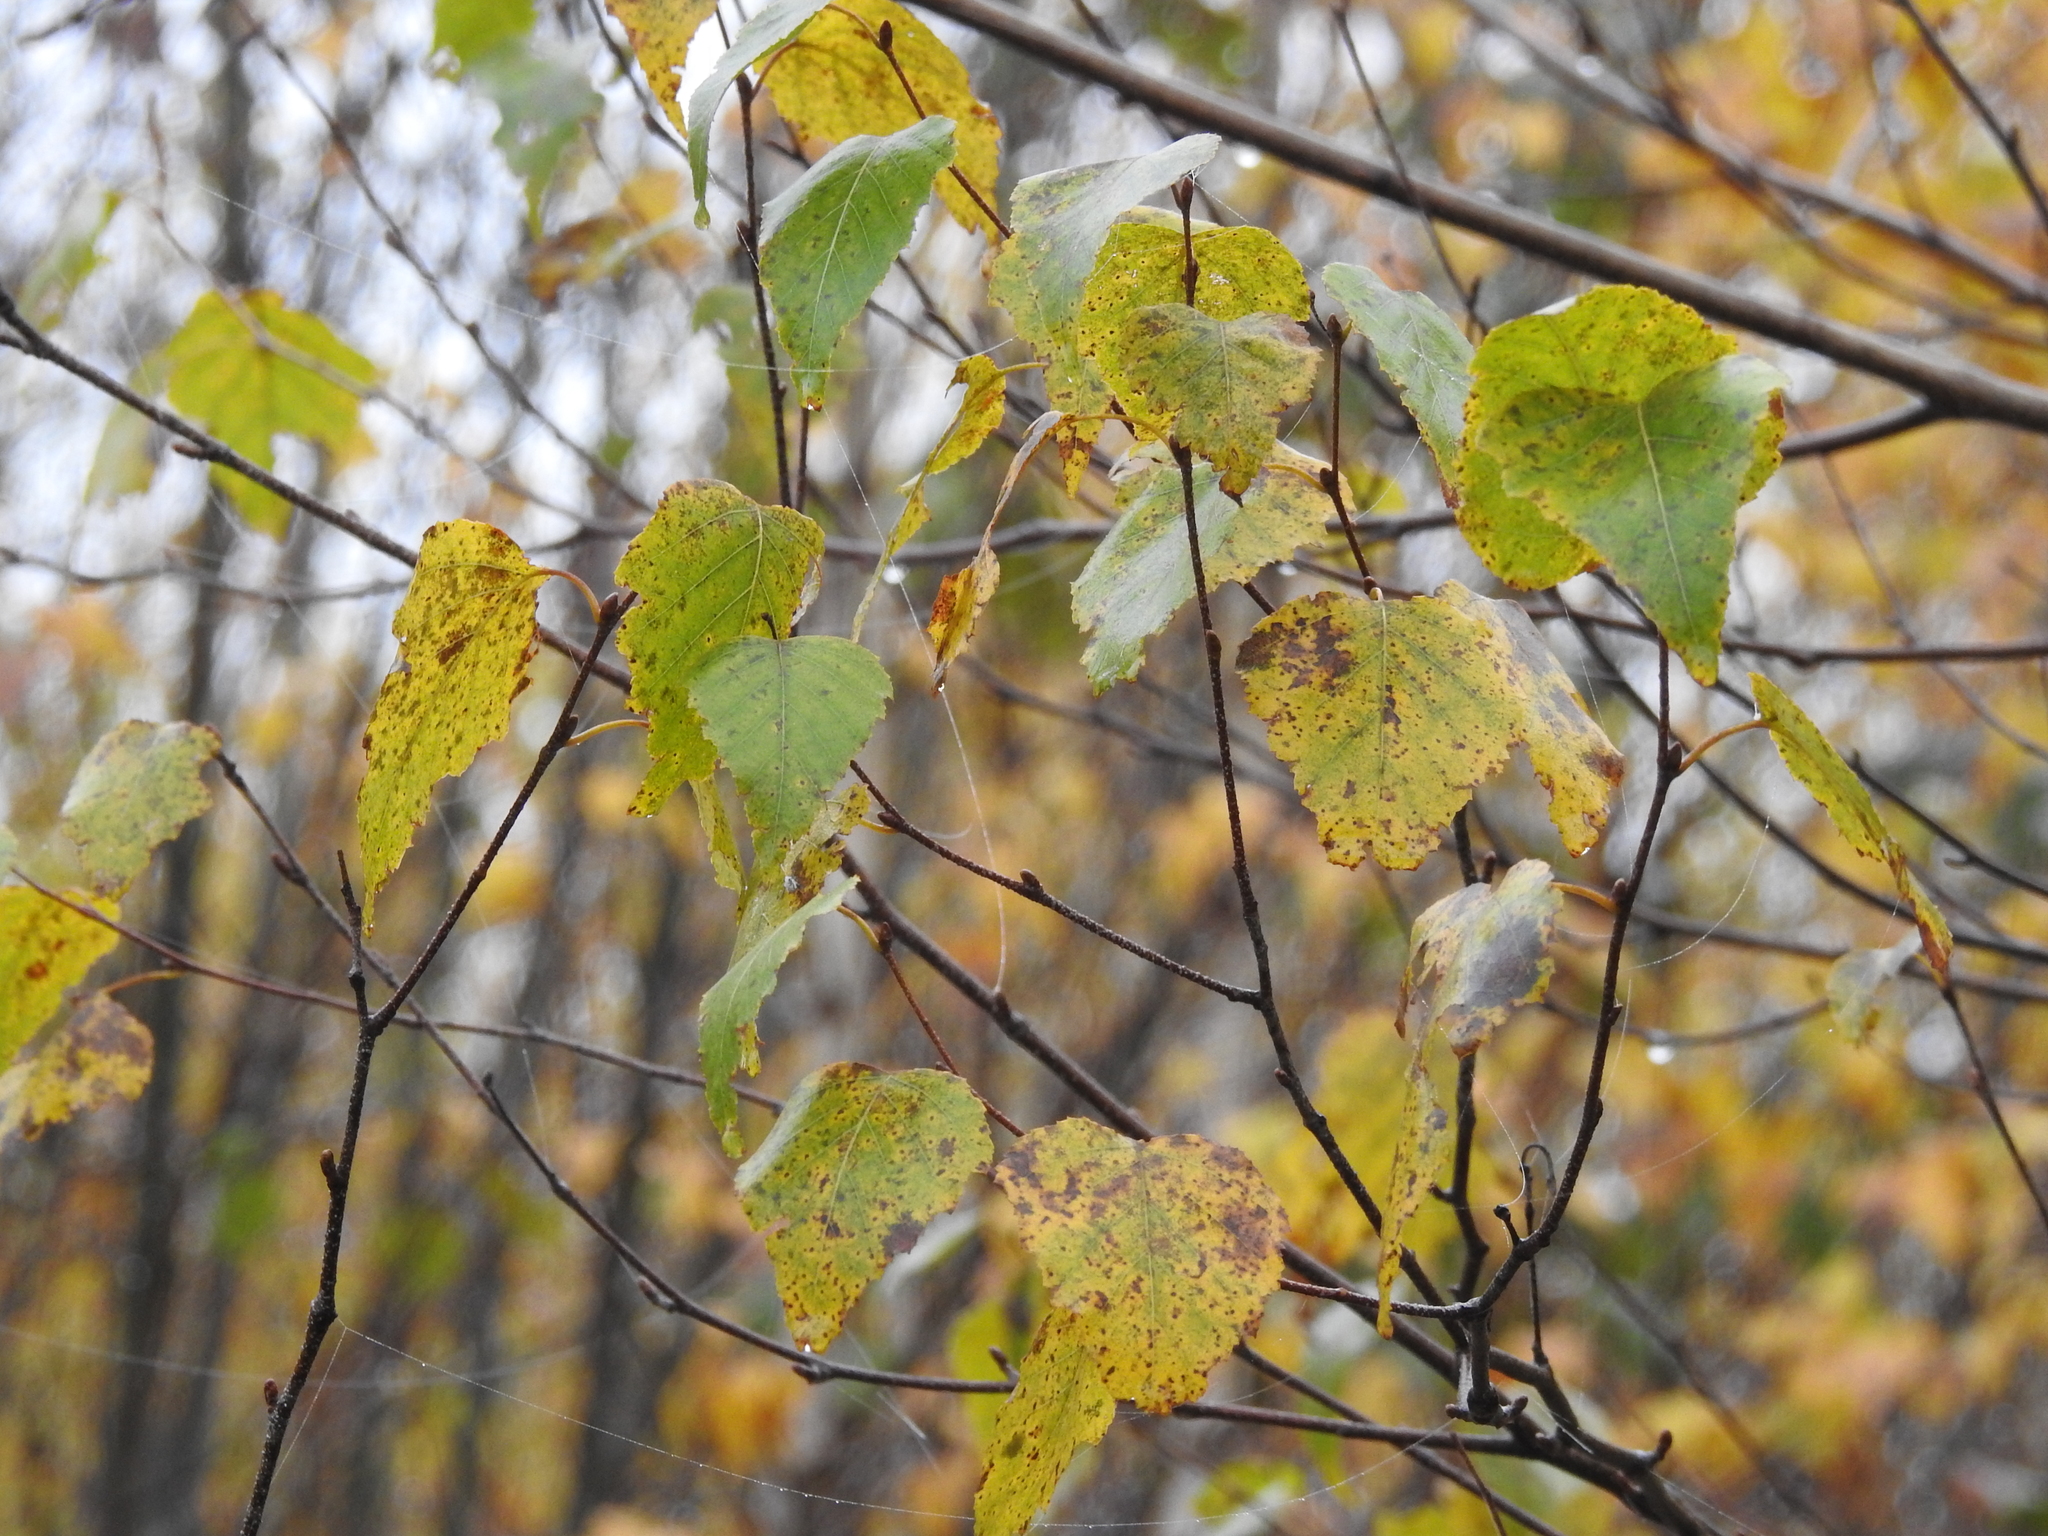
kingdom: Plantae
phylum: Tracheophyta
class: Magnoliopsida
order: Fagales
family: Betulaceae
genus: Betula
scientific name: Betula populifolia
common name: Fire birch
